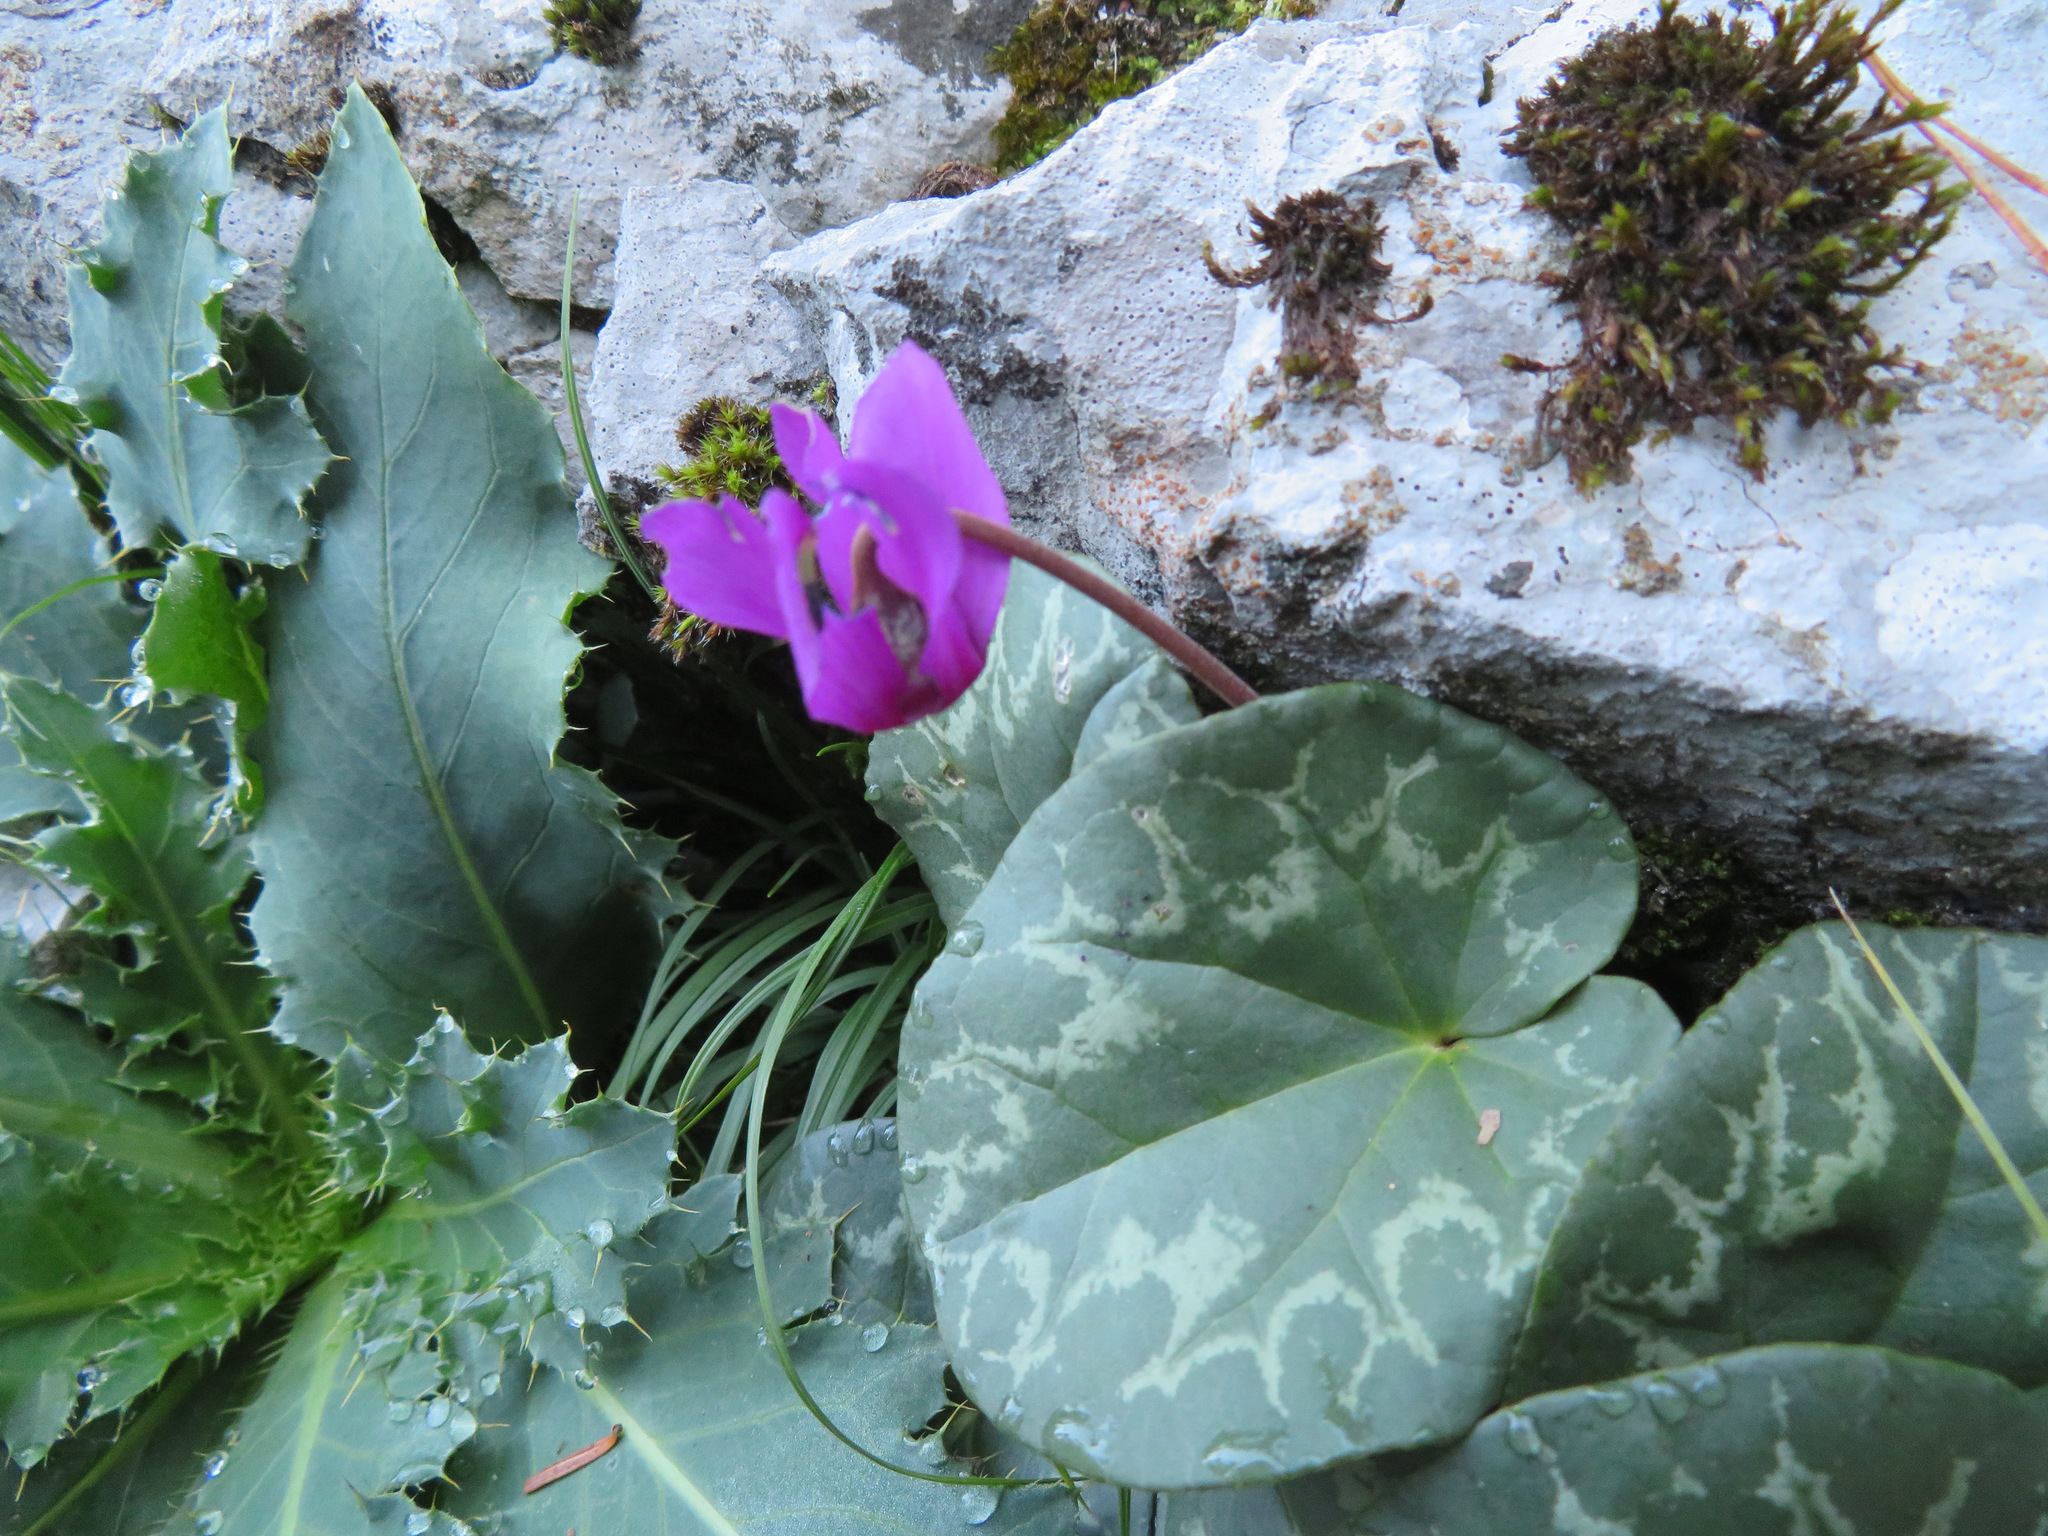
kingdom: Plantae
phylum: Tracheophyta
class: Magnoliopsida
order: Ericales
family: Primulaceae
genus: Cyclamen
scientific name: Cyclamen purpurascens
